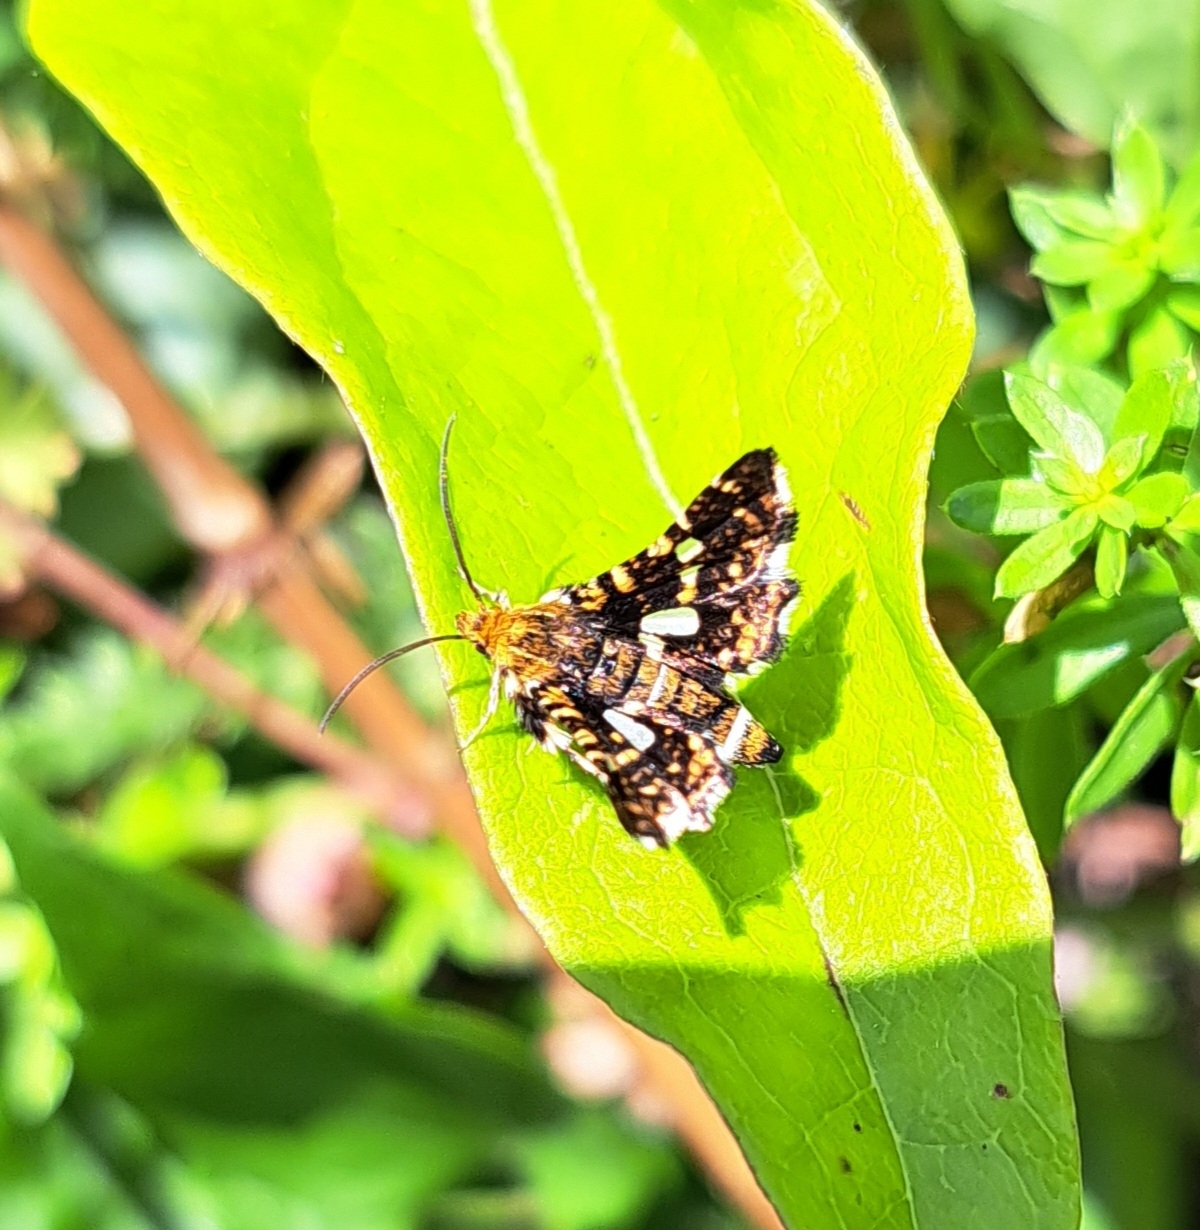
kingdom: Animalia
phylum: Arthropoda
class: Insecta
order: Lepidoptera
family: Thyrididae
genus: Thyris
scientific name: Thyris fenestrella
